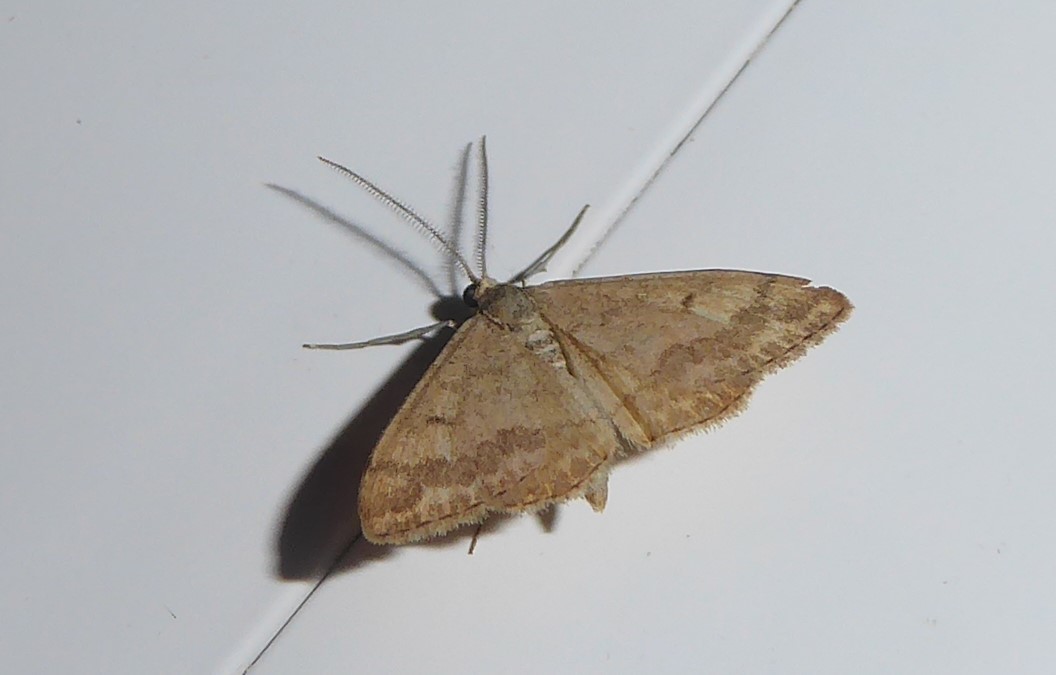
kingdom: Animalia
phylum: Arthropoda
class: Insecta
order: Lepidoptera
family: Geometridae
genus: Scopula
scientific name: Scopula rubraria
